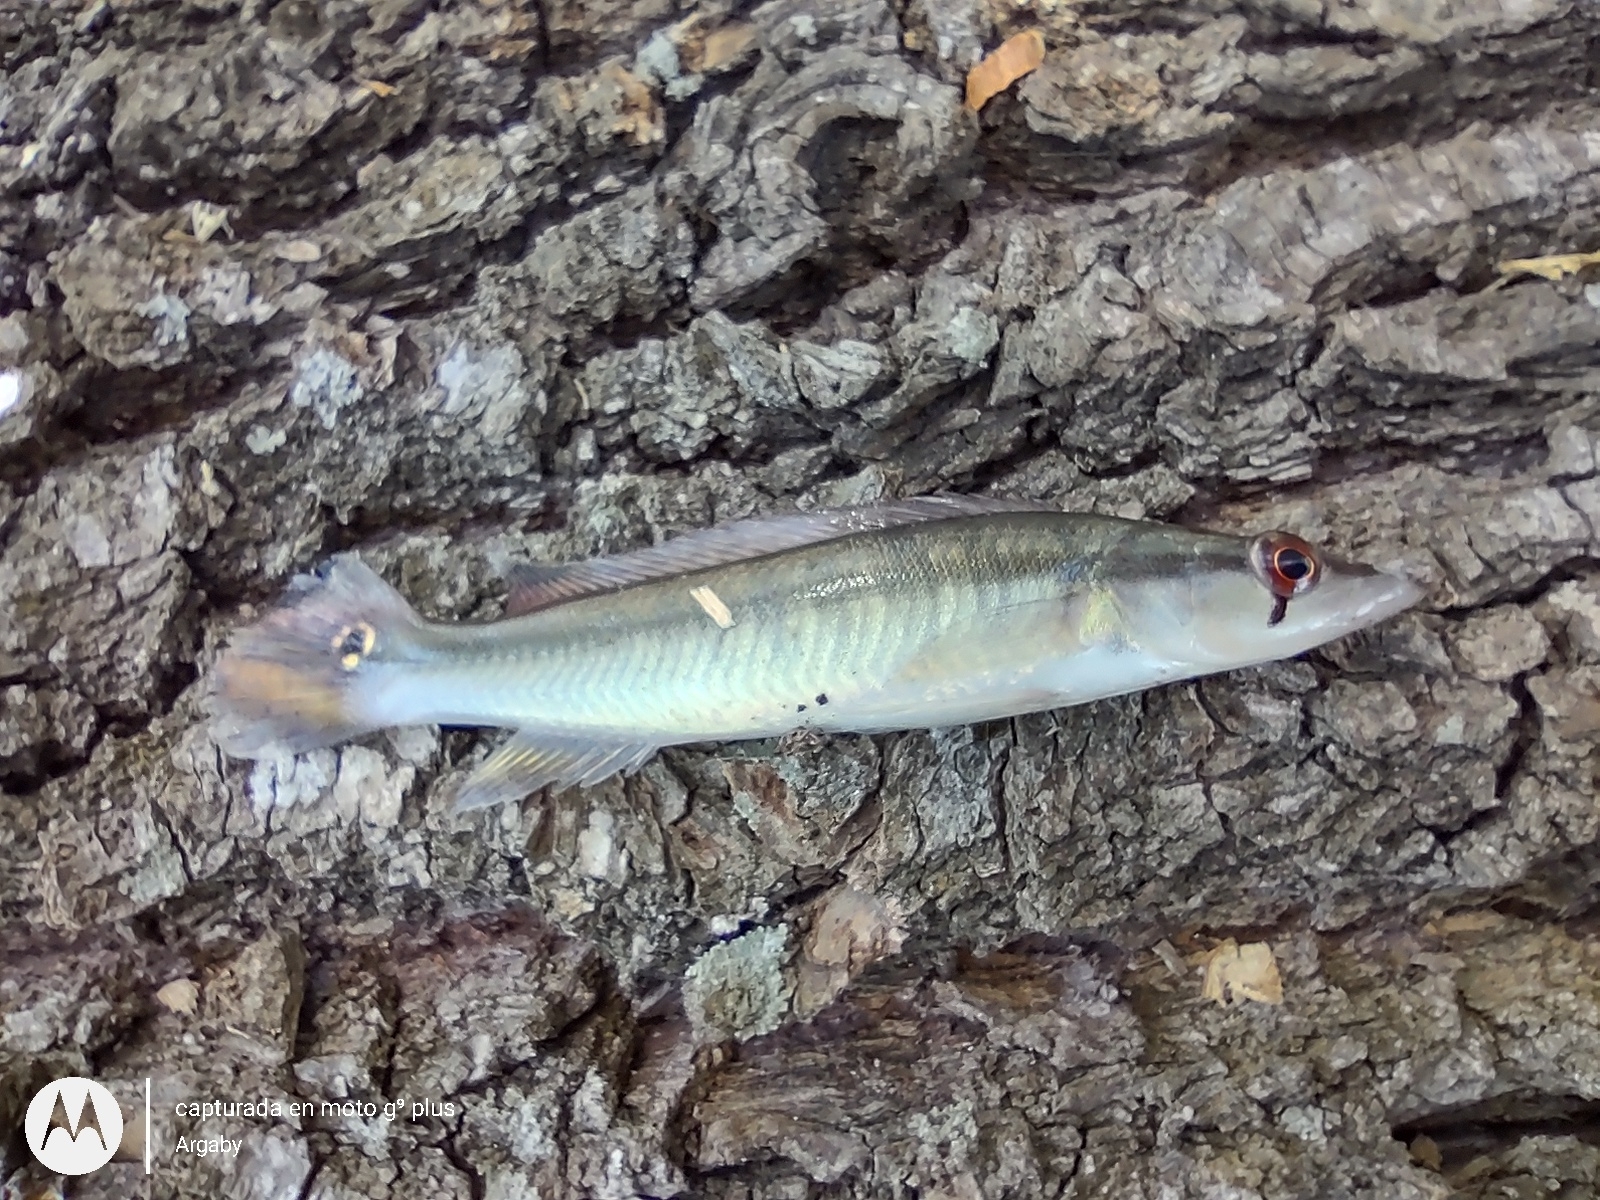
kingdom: Animalia
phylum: Chordata
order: Perciformes
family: Cichlidae
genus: Crenicichla
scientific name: Crenicichla vittata
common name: Pike cichlid
